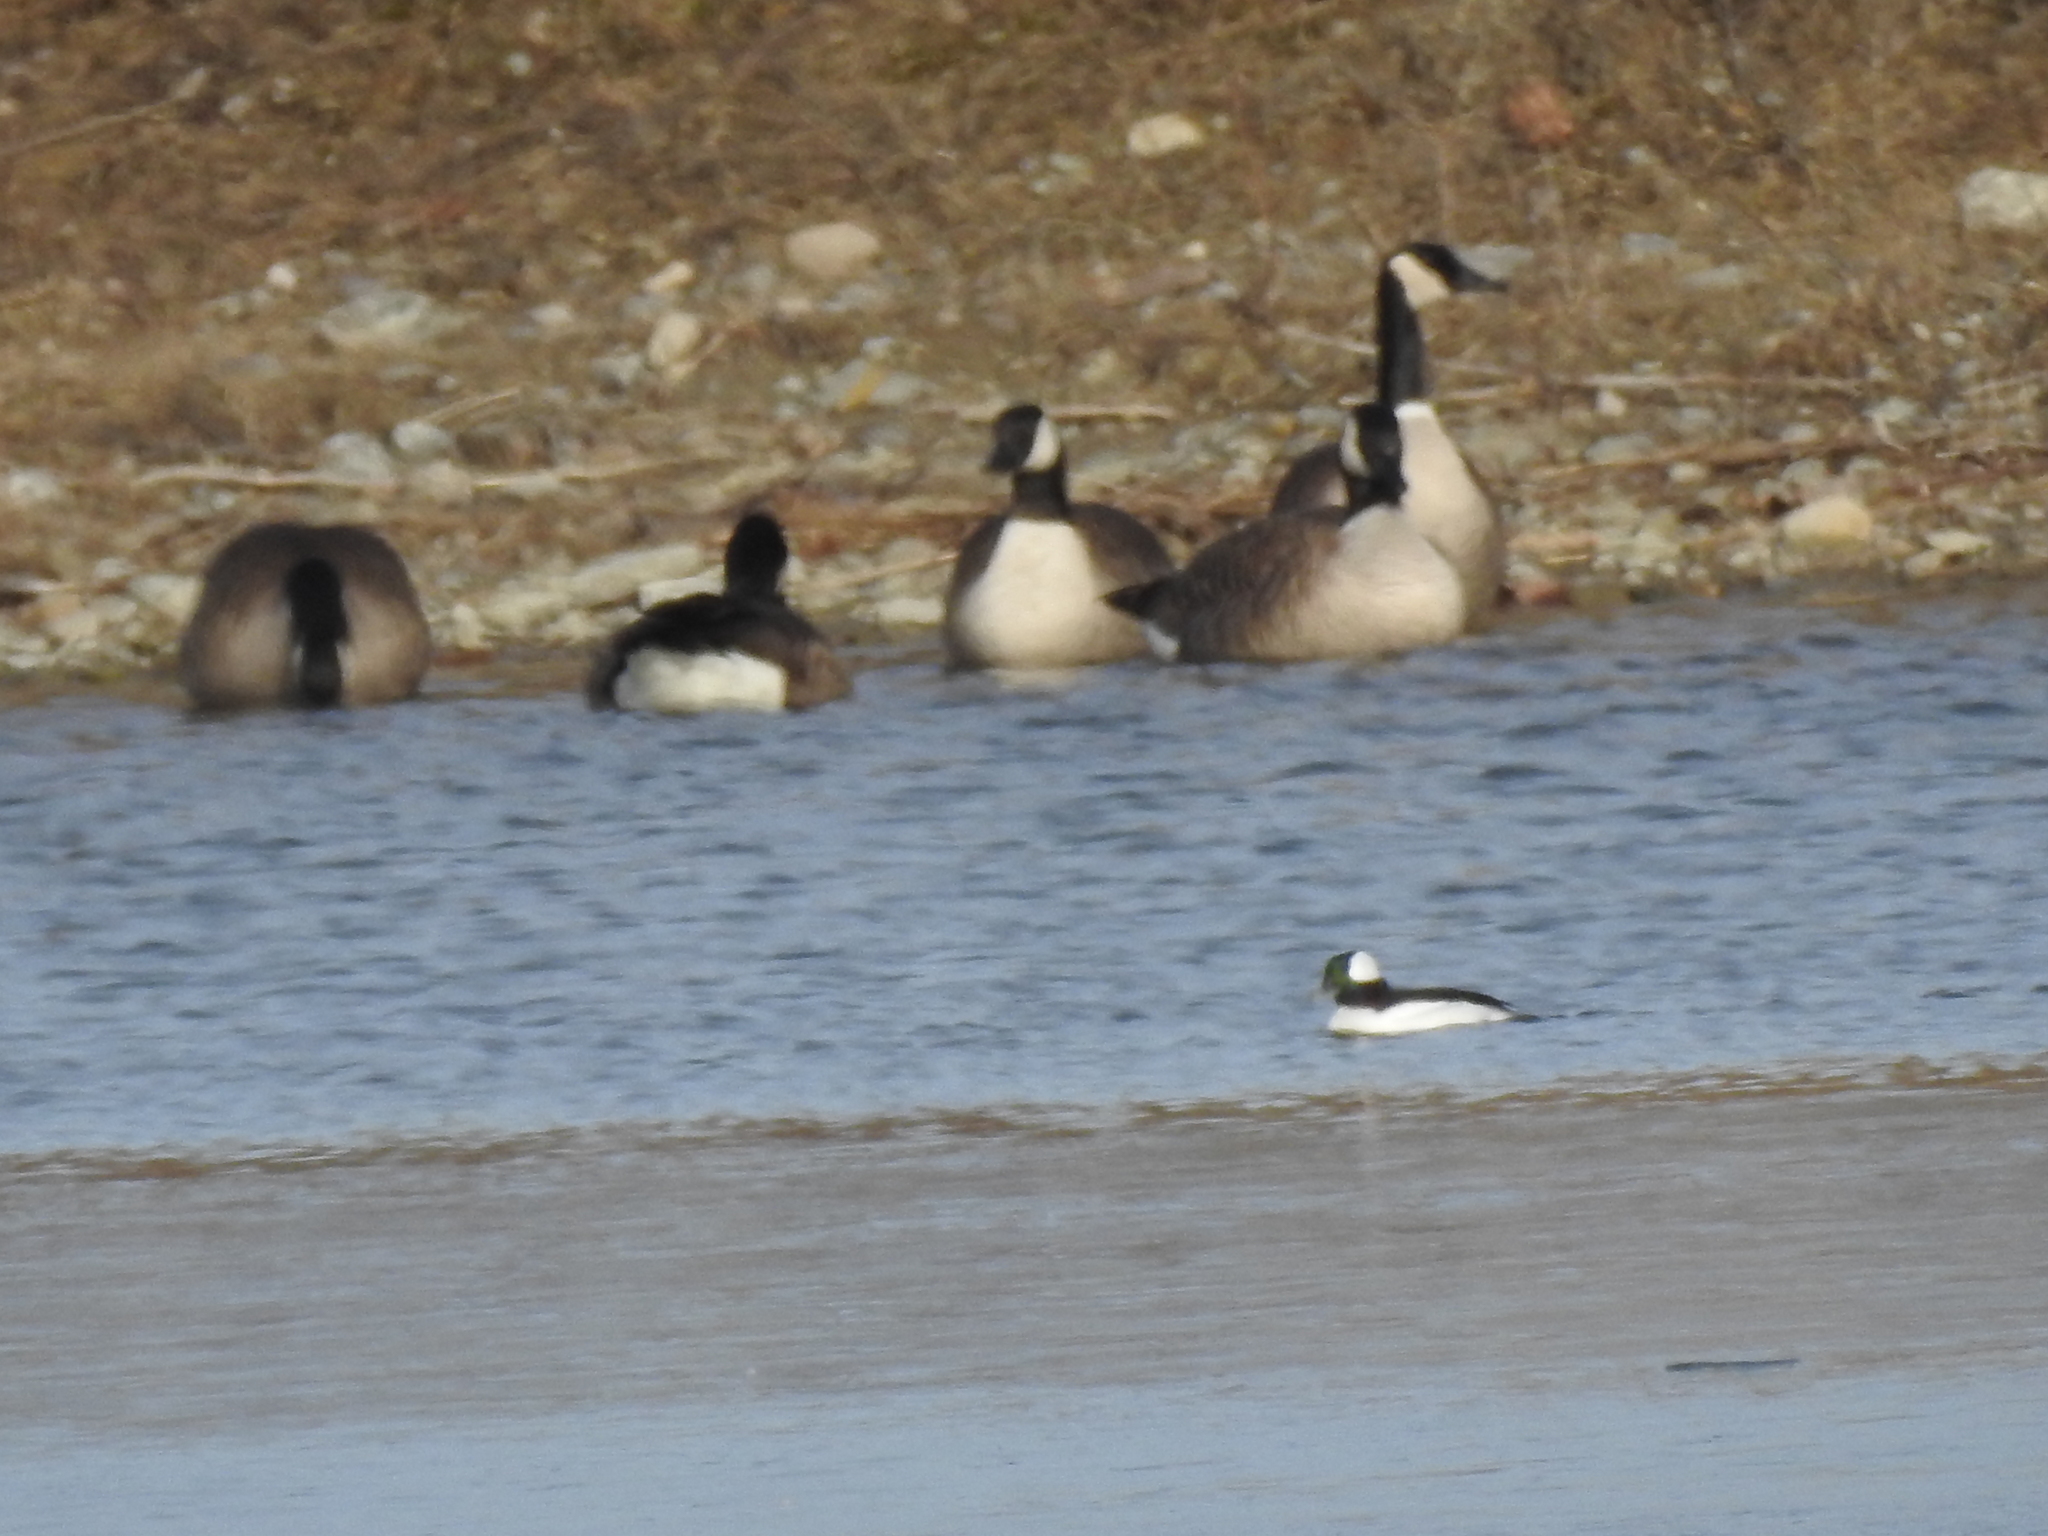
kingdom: Animalia
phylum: Chordata
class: Aves
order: Anseriformes
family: Anatidae
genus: Bucephala
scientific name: Bucephala albeola
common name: Bufflehead
